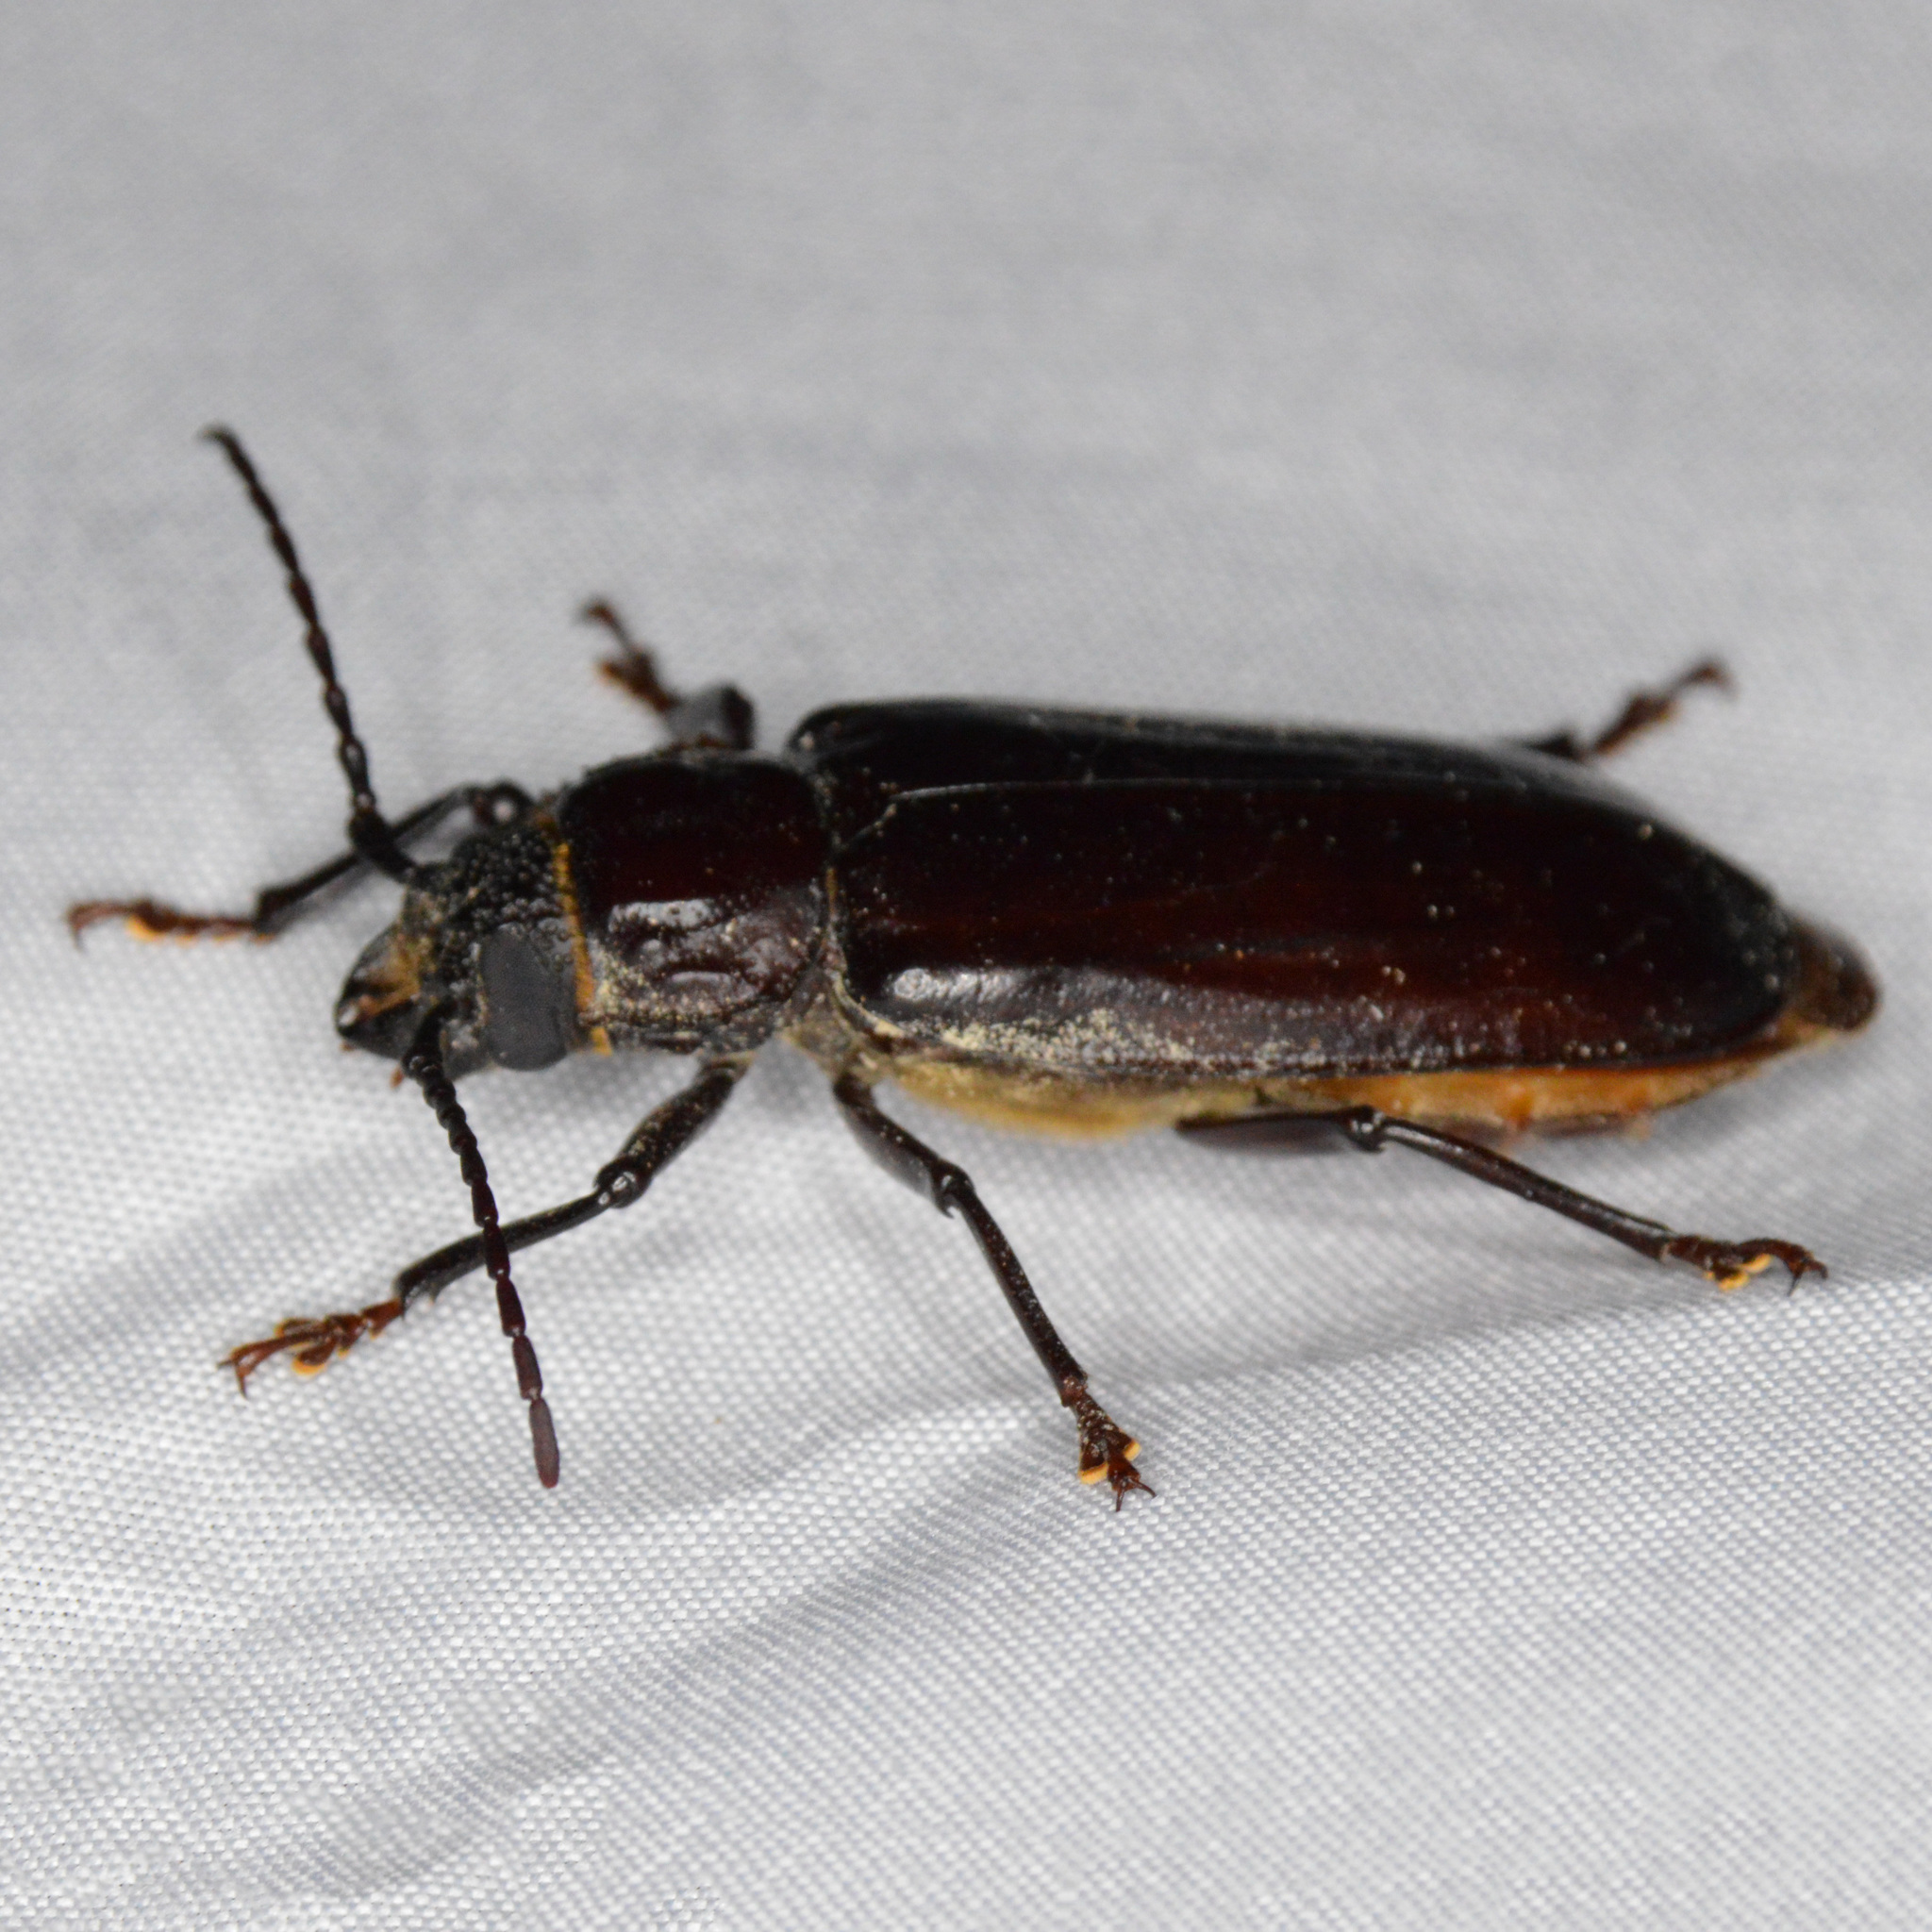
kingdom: Animalia
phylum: Arthropoda
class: Insecta
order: Coleoptera
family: Cerambycidae
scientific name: Cerambycidae
